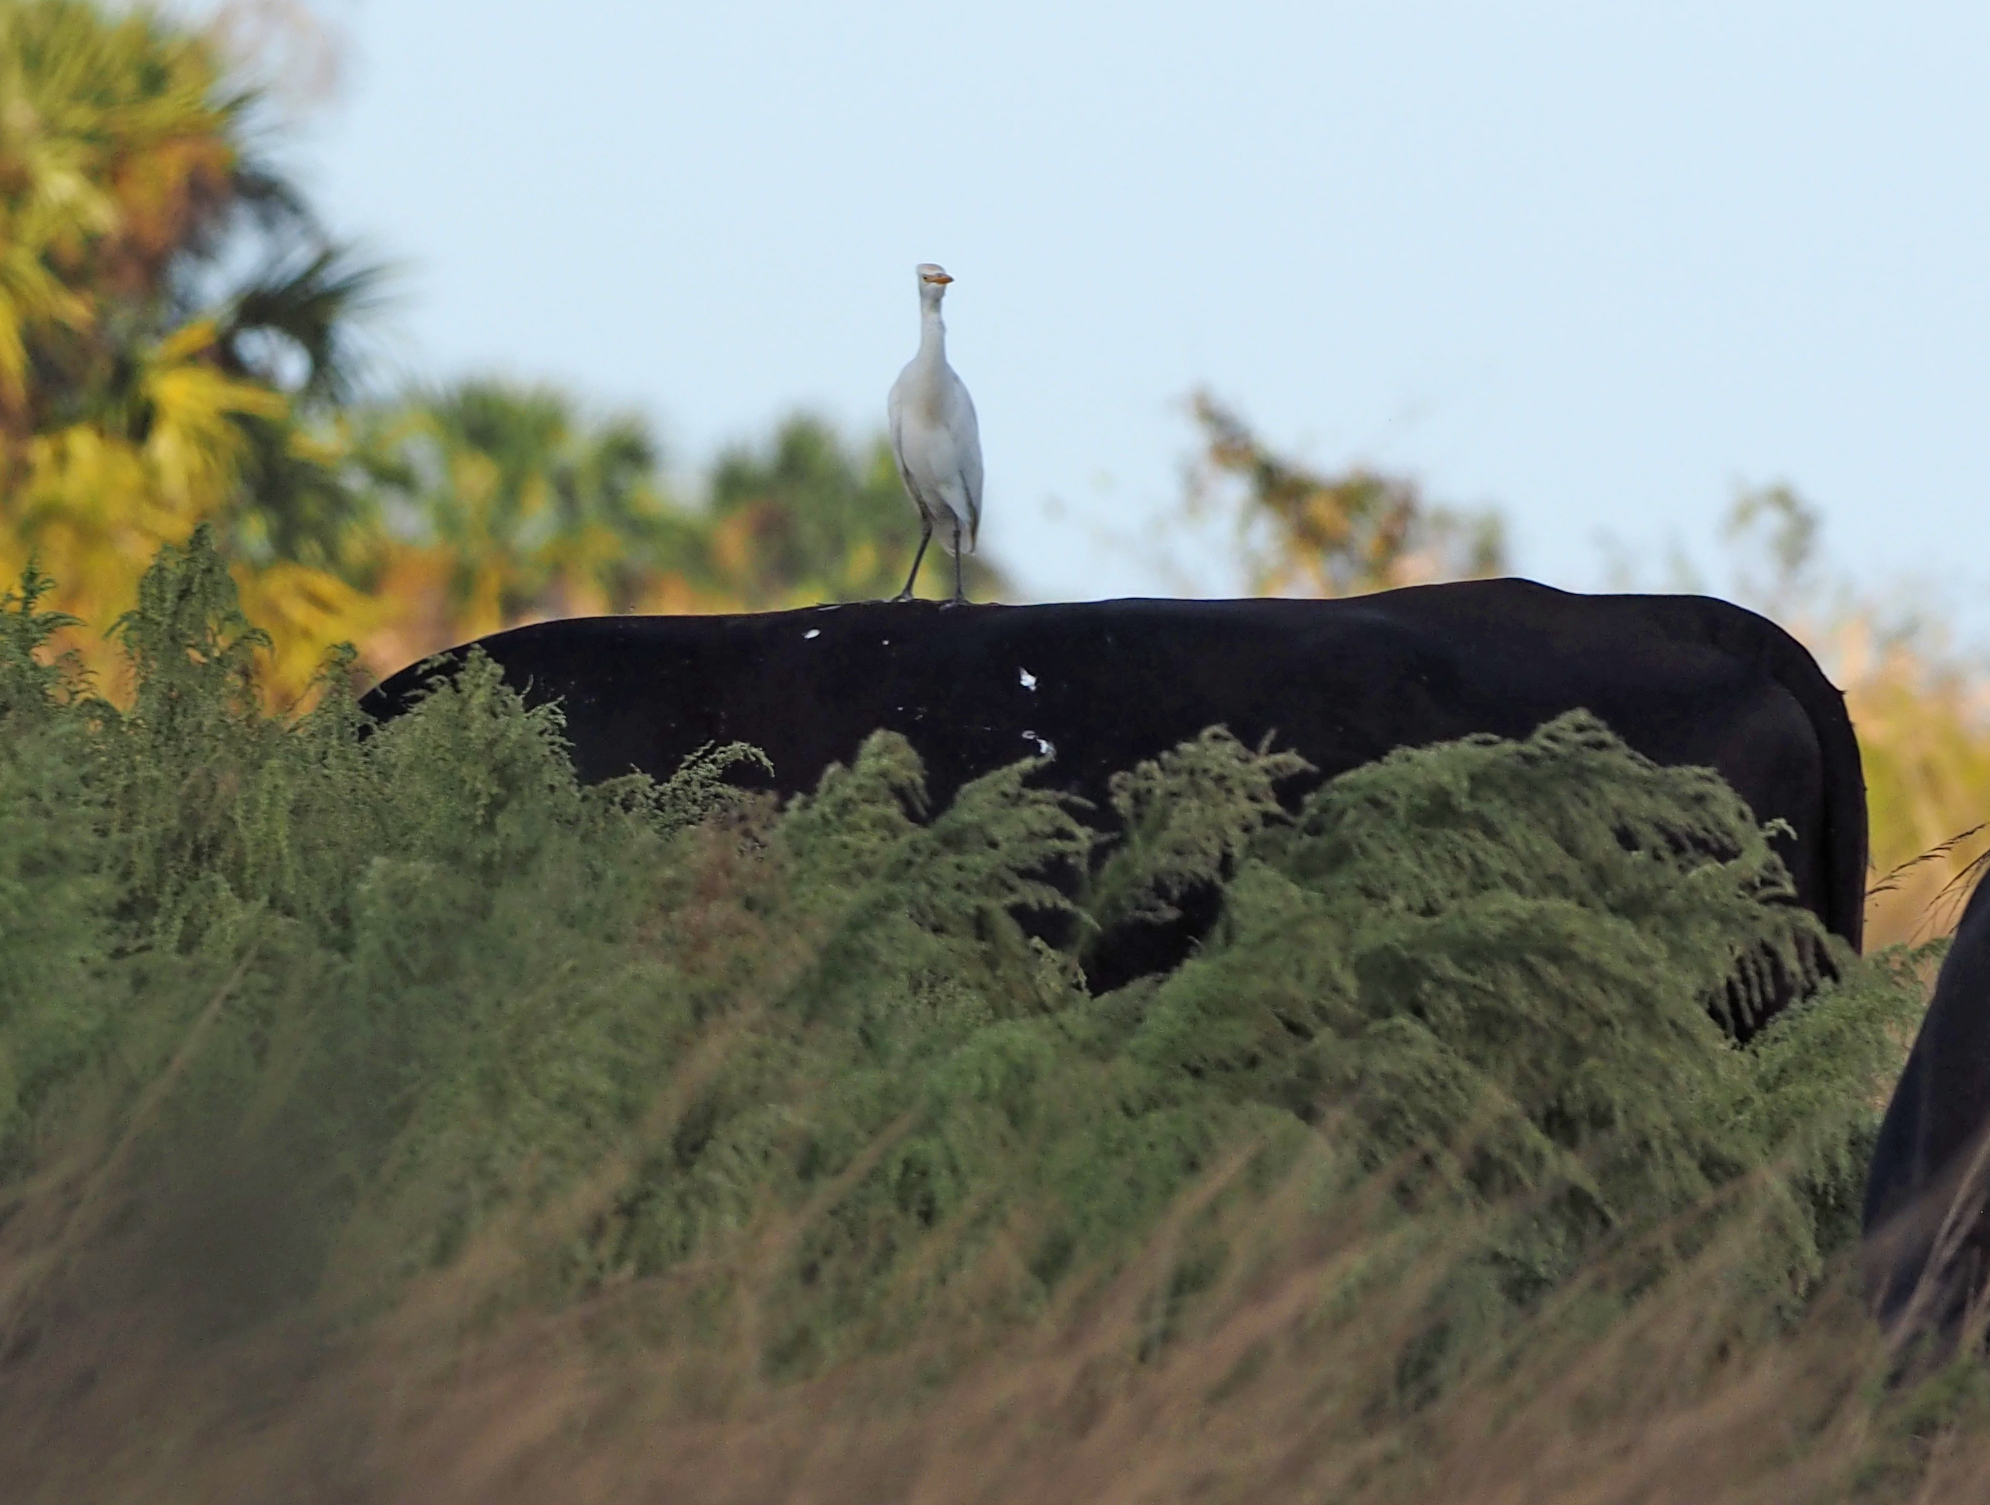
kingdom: Animalia
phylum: Chordata
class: Aves
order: Pelecaniformes
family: Ardeidae
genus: Bubulcus
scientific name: Bubulcus ibis
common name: Cattle egret
